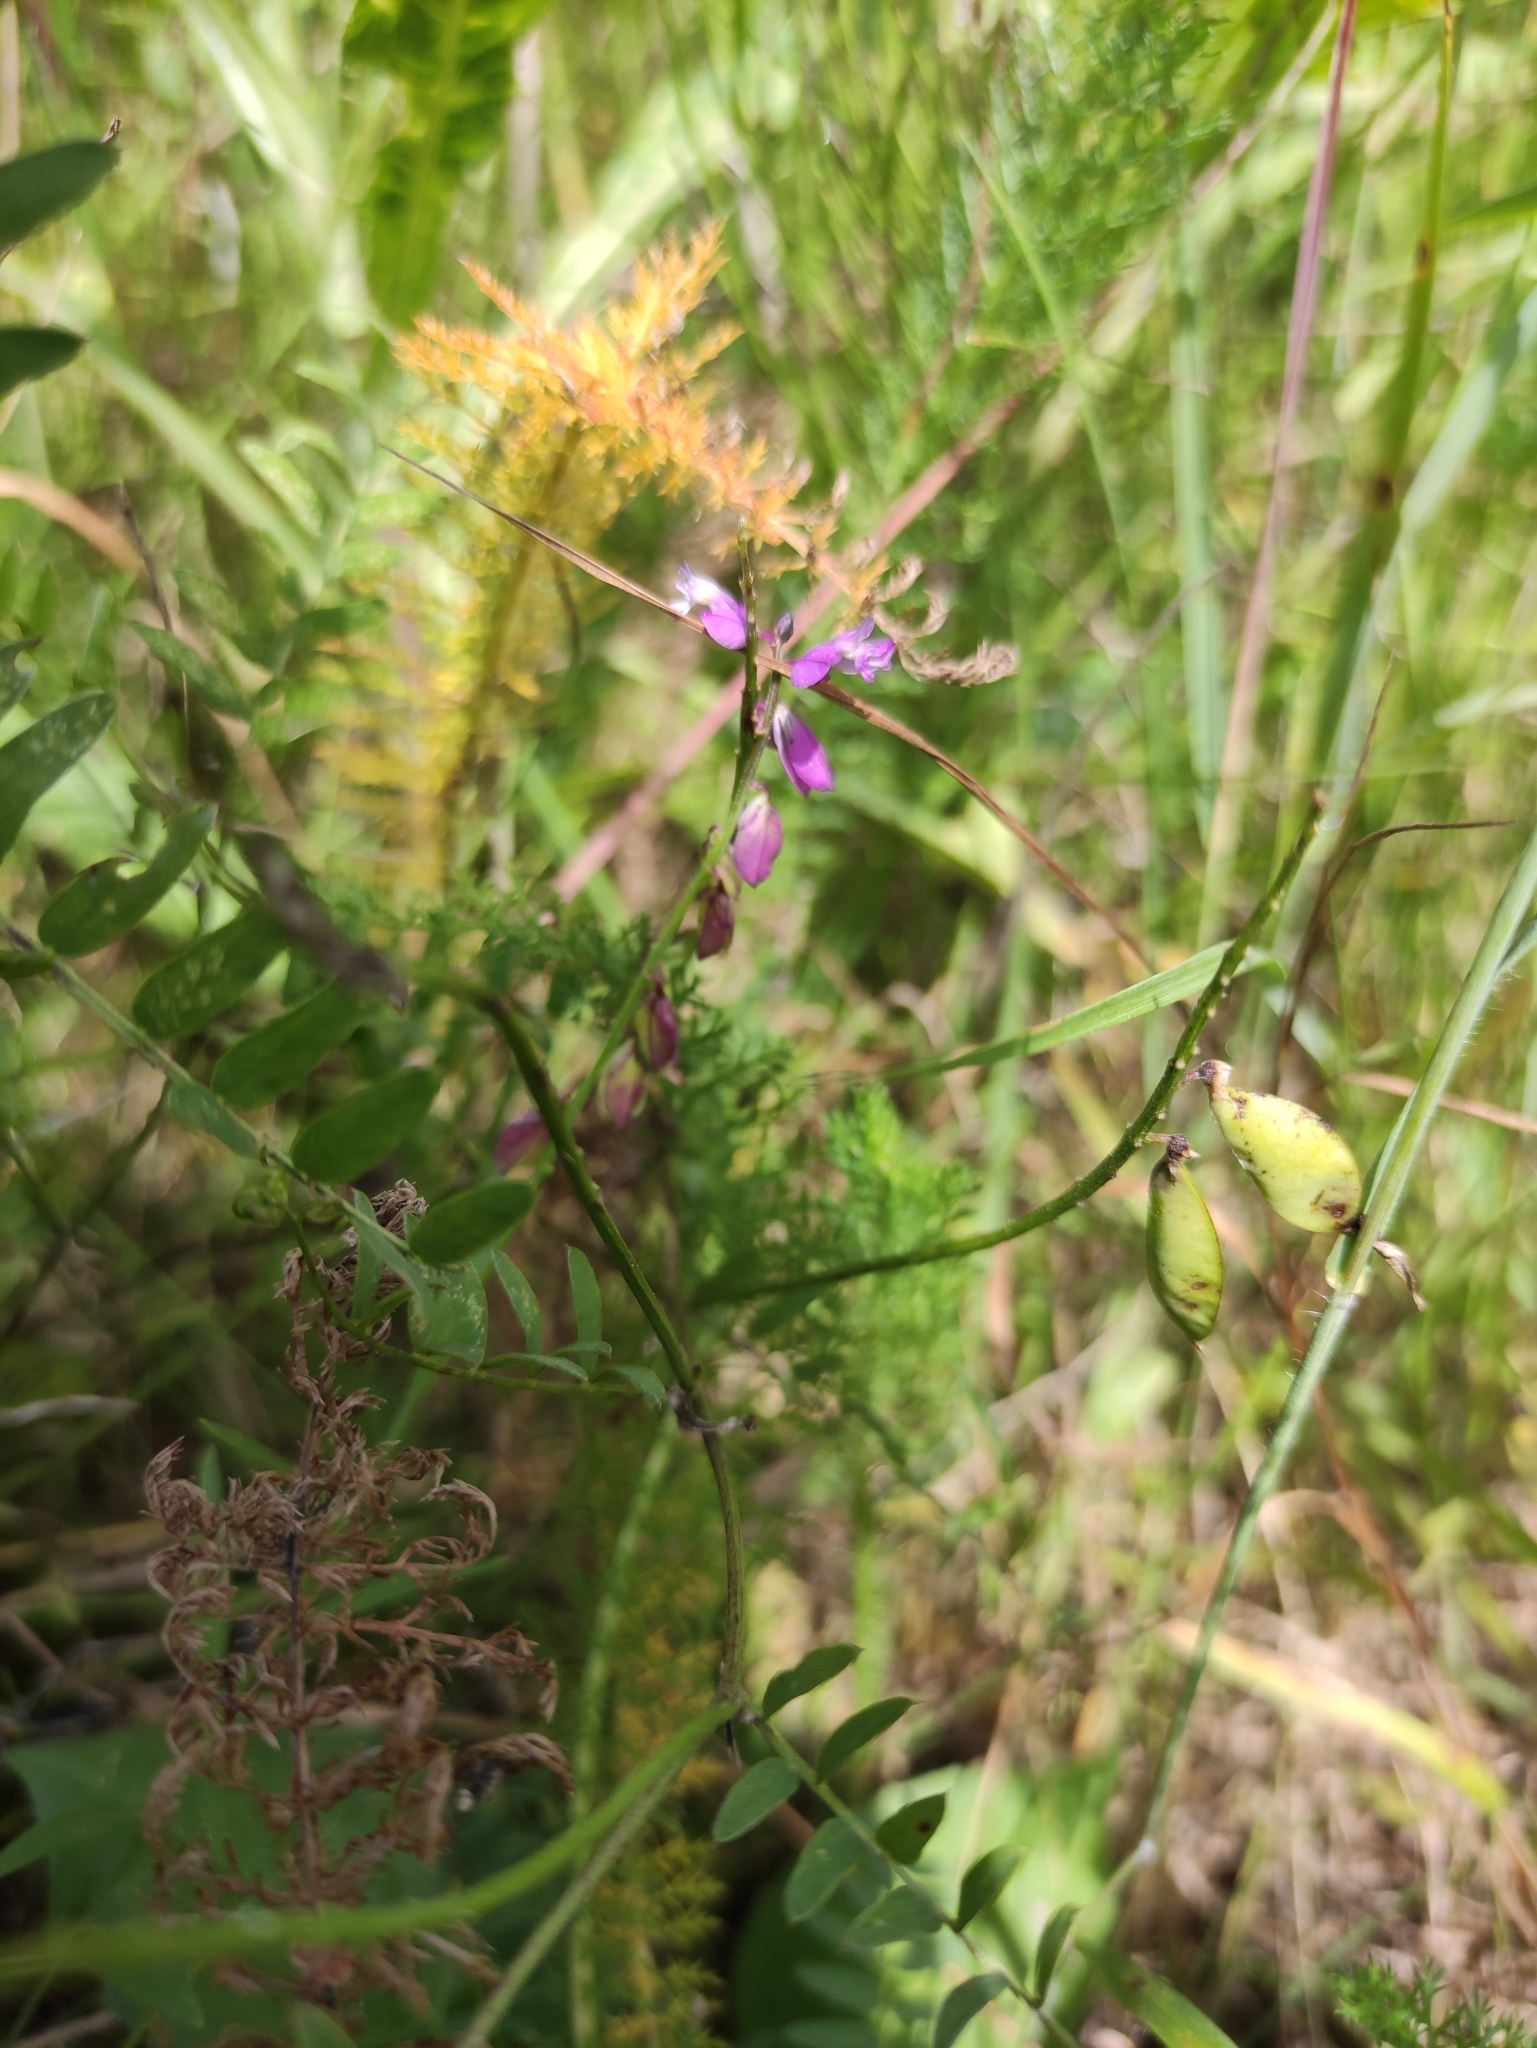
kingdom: Plantae
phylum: Tracheophyta
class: Magnoliopsida
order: Fabales
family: Polygalaceae
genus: Polygala
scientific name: Polygala comosa
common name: Tufted milkwort
